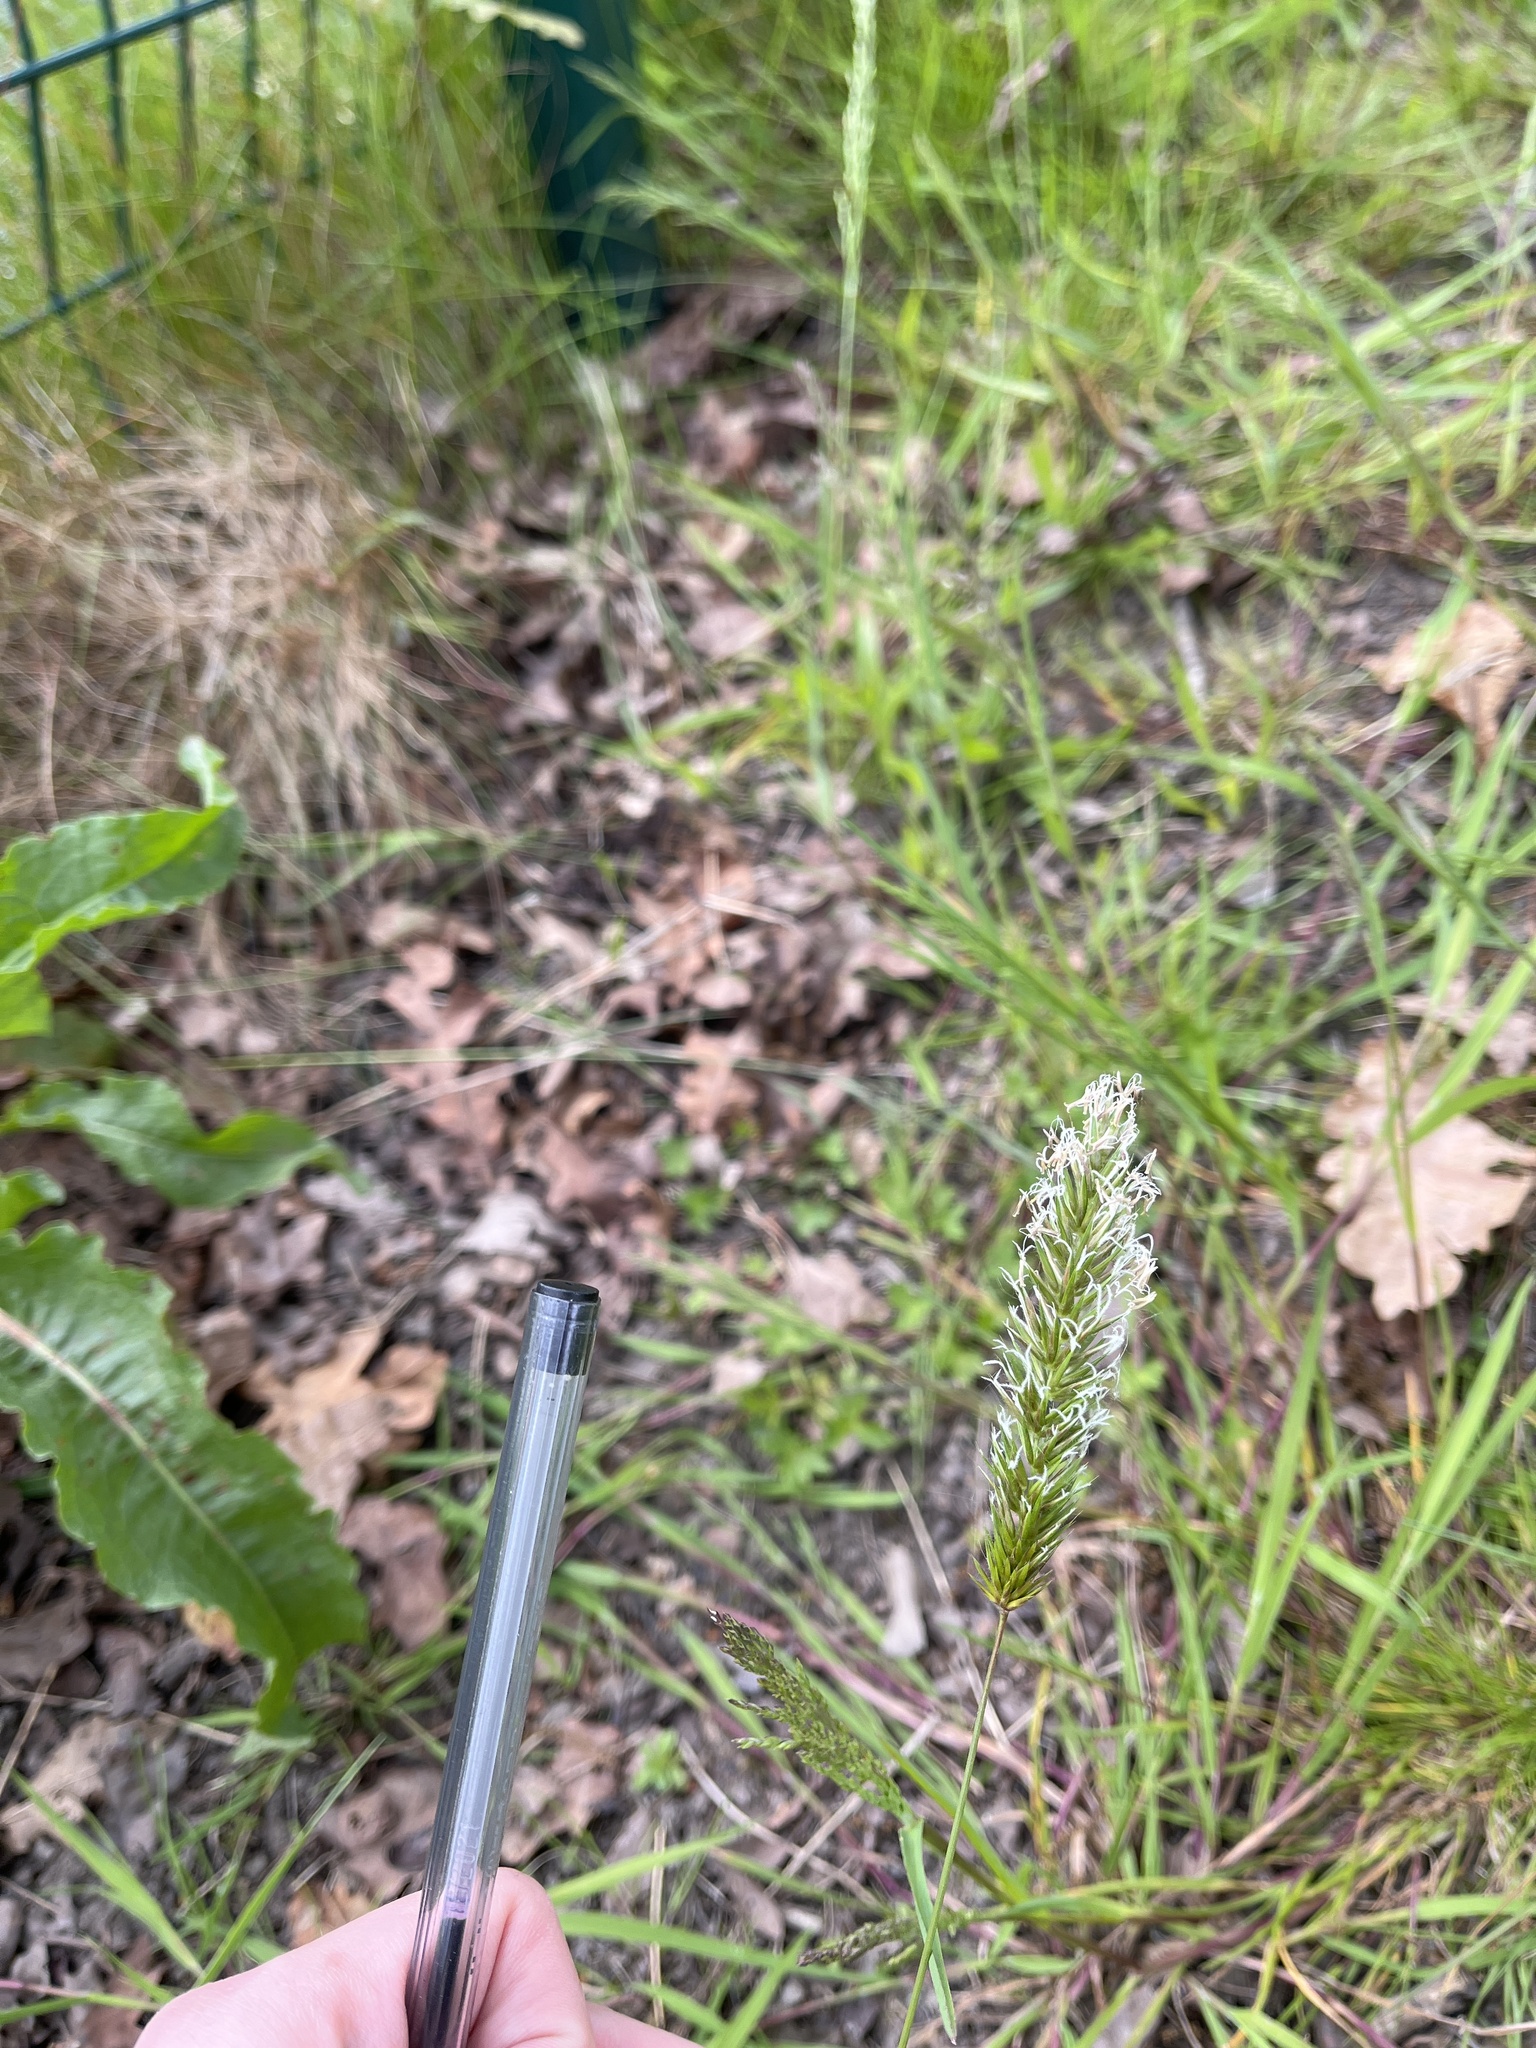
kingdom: Plantae
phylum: Tracheophyta
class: Liliopsida
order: Poales
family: Poaceae
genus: Anthoxanthum
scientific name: Anthoxanthum odoratum
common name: Sweet vernalgrass
